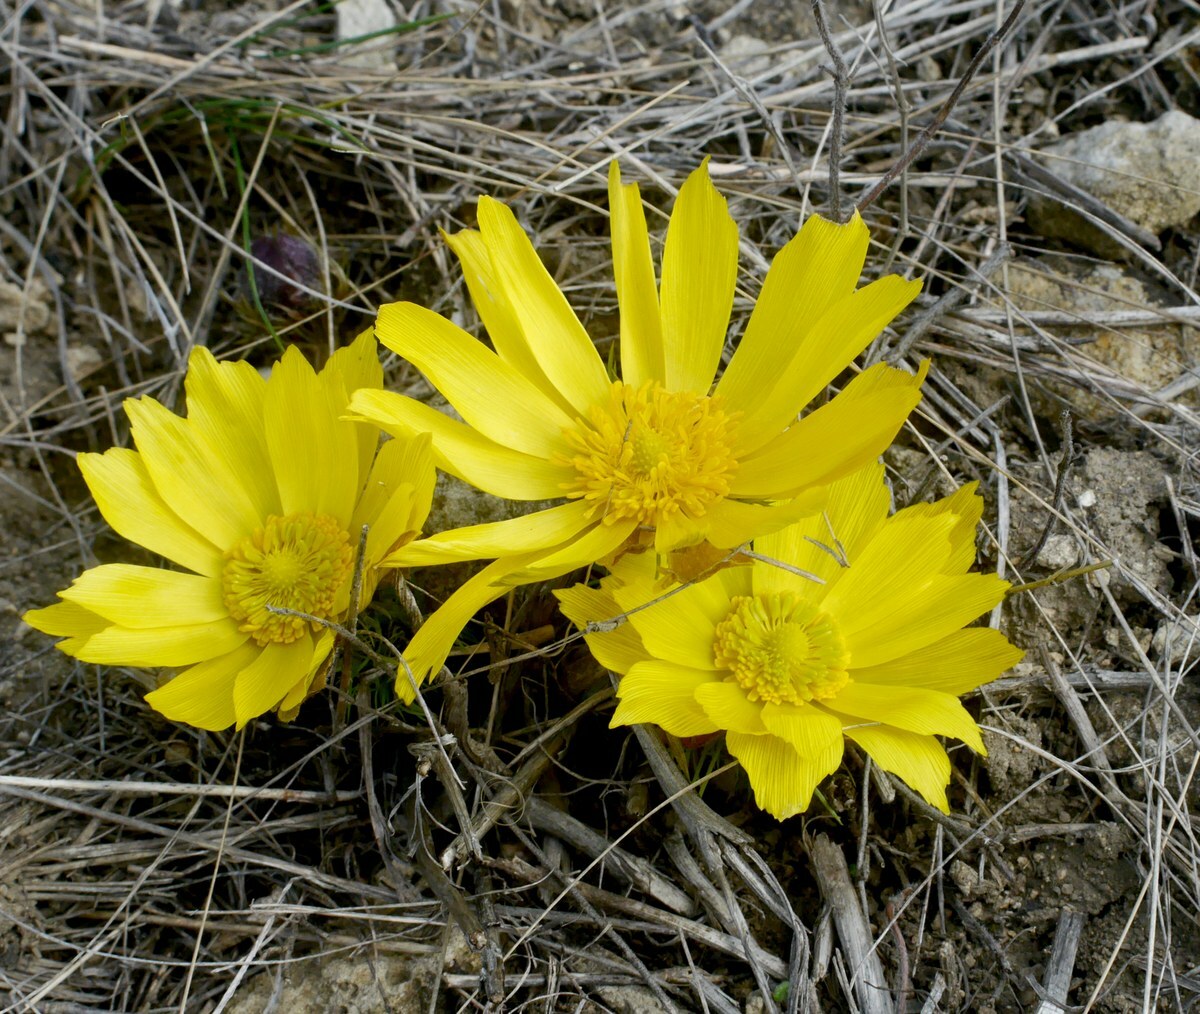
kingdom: Plantae
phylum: Tracheophyta
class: Magnoliopsida
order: Ranunculales
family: Ranunculaceae
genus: Adonis
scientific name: Adonis vernalis
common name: Yellow pheasants-eye
